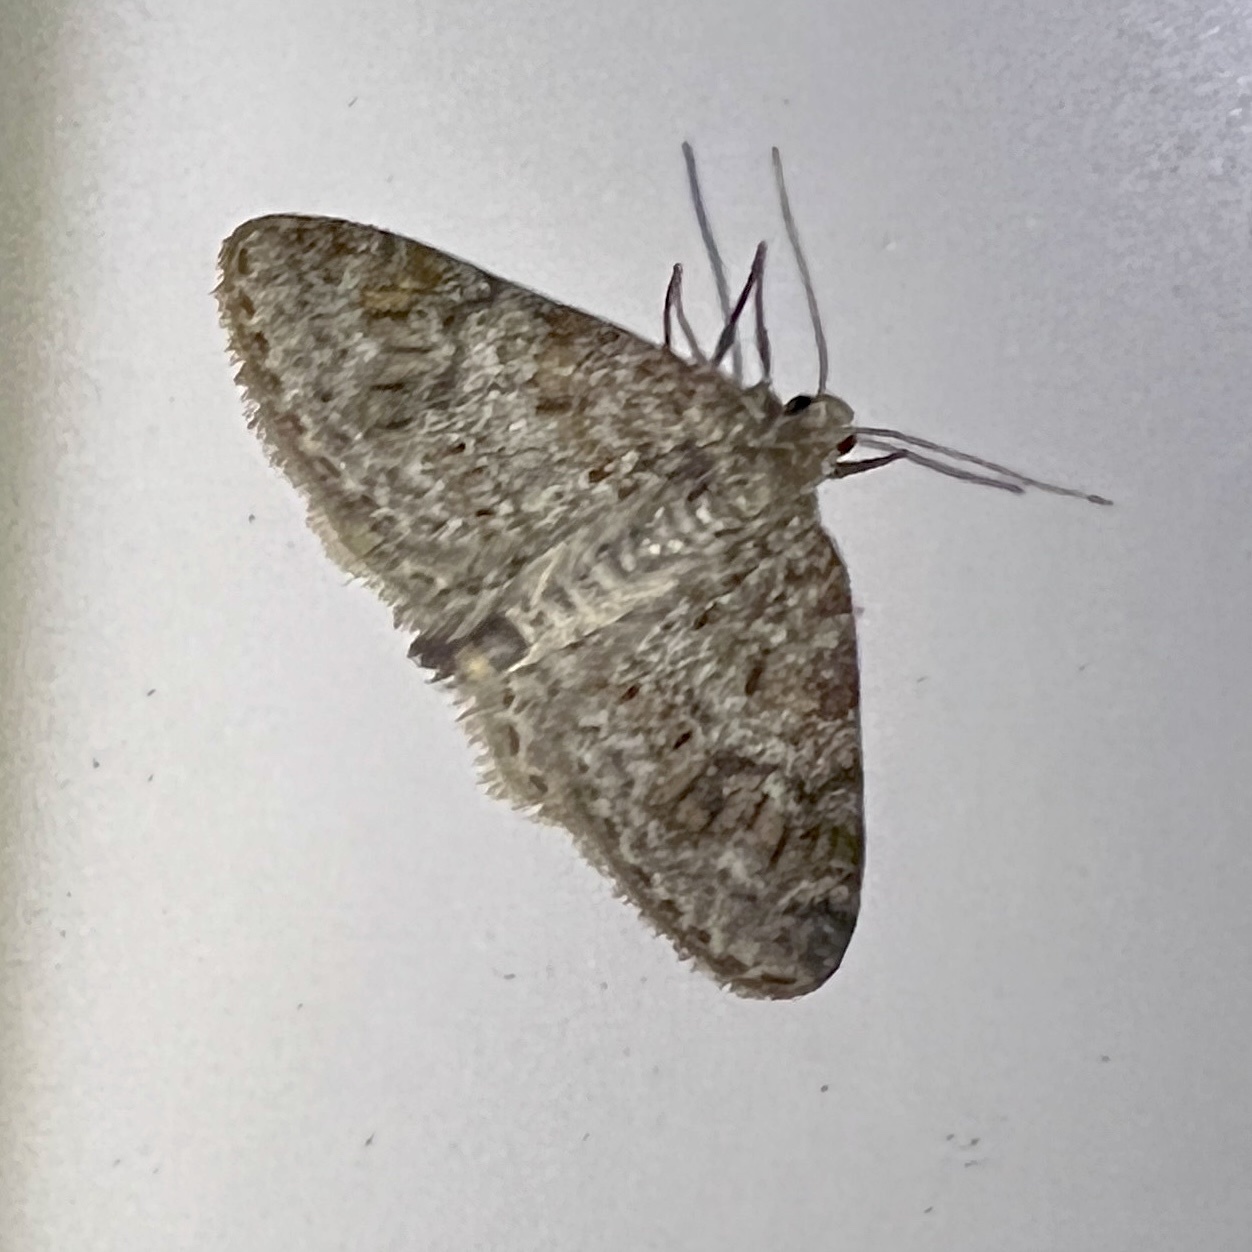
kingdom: Animalia
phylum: Arthropoda
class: Insecta
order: Lepidoptera
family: Geometridae
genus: Hydrelia
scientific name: Hydrelia inornata
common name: Unadorned carpet moth
